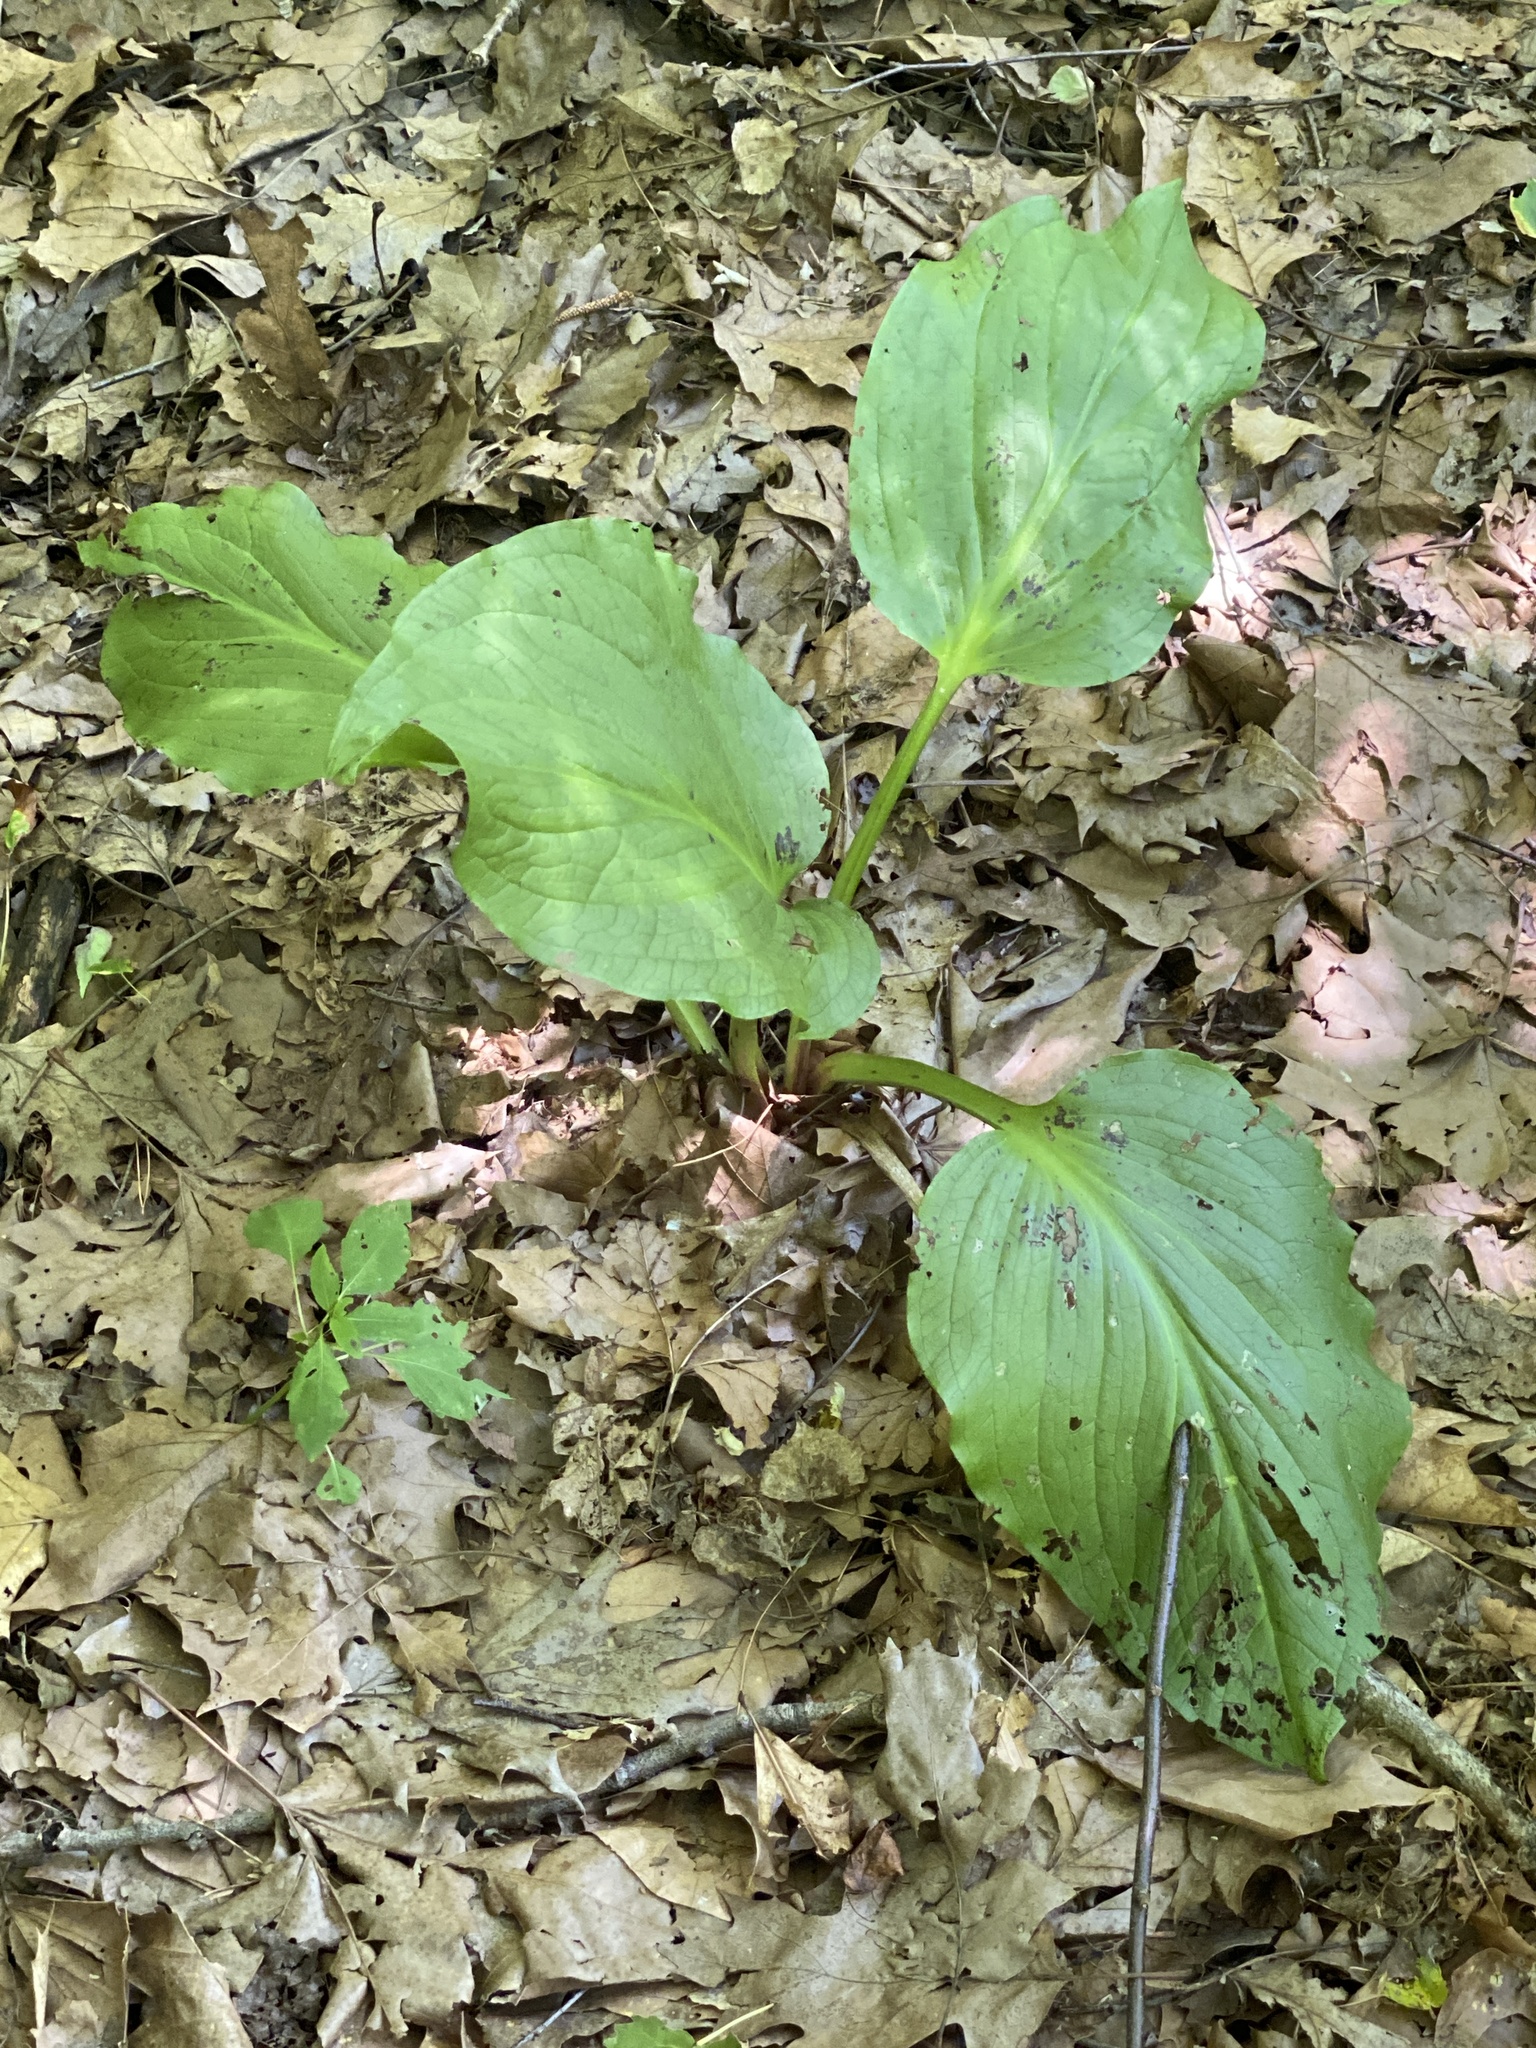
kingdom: Plantae
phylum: Tracheophyta
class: Liliopsida
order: Alismatales
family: Araceae
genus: Symplocarpus
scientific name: Symplocarpus foetidus
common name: Eastern skunk cabbage
